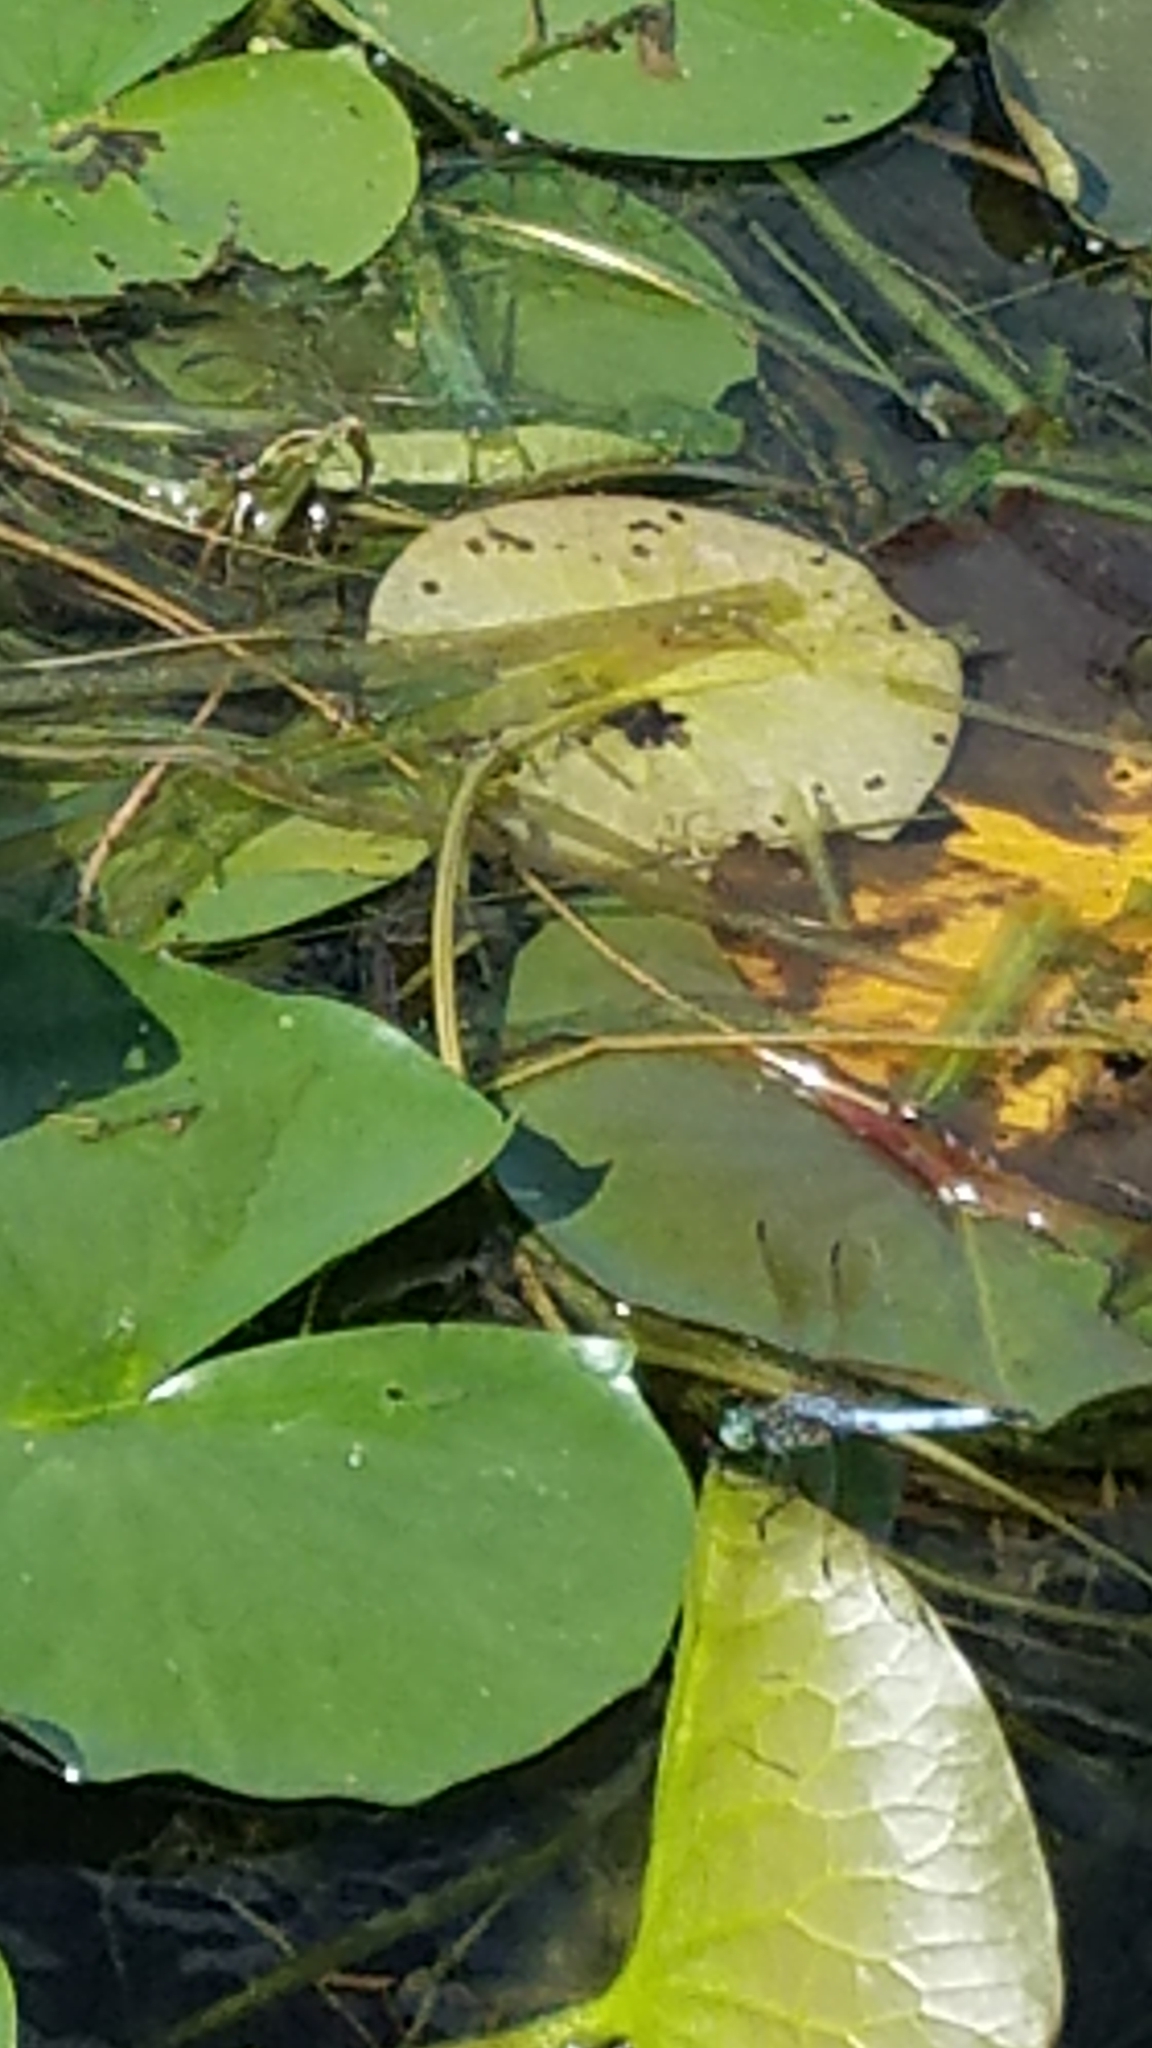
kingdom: Animalia
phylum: Arthropoda
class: Insecta
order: Odonata
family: Libellulidae
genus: Pachydiplax
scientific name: Pachydiplax longipennis
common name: Blue dasher
